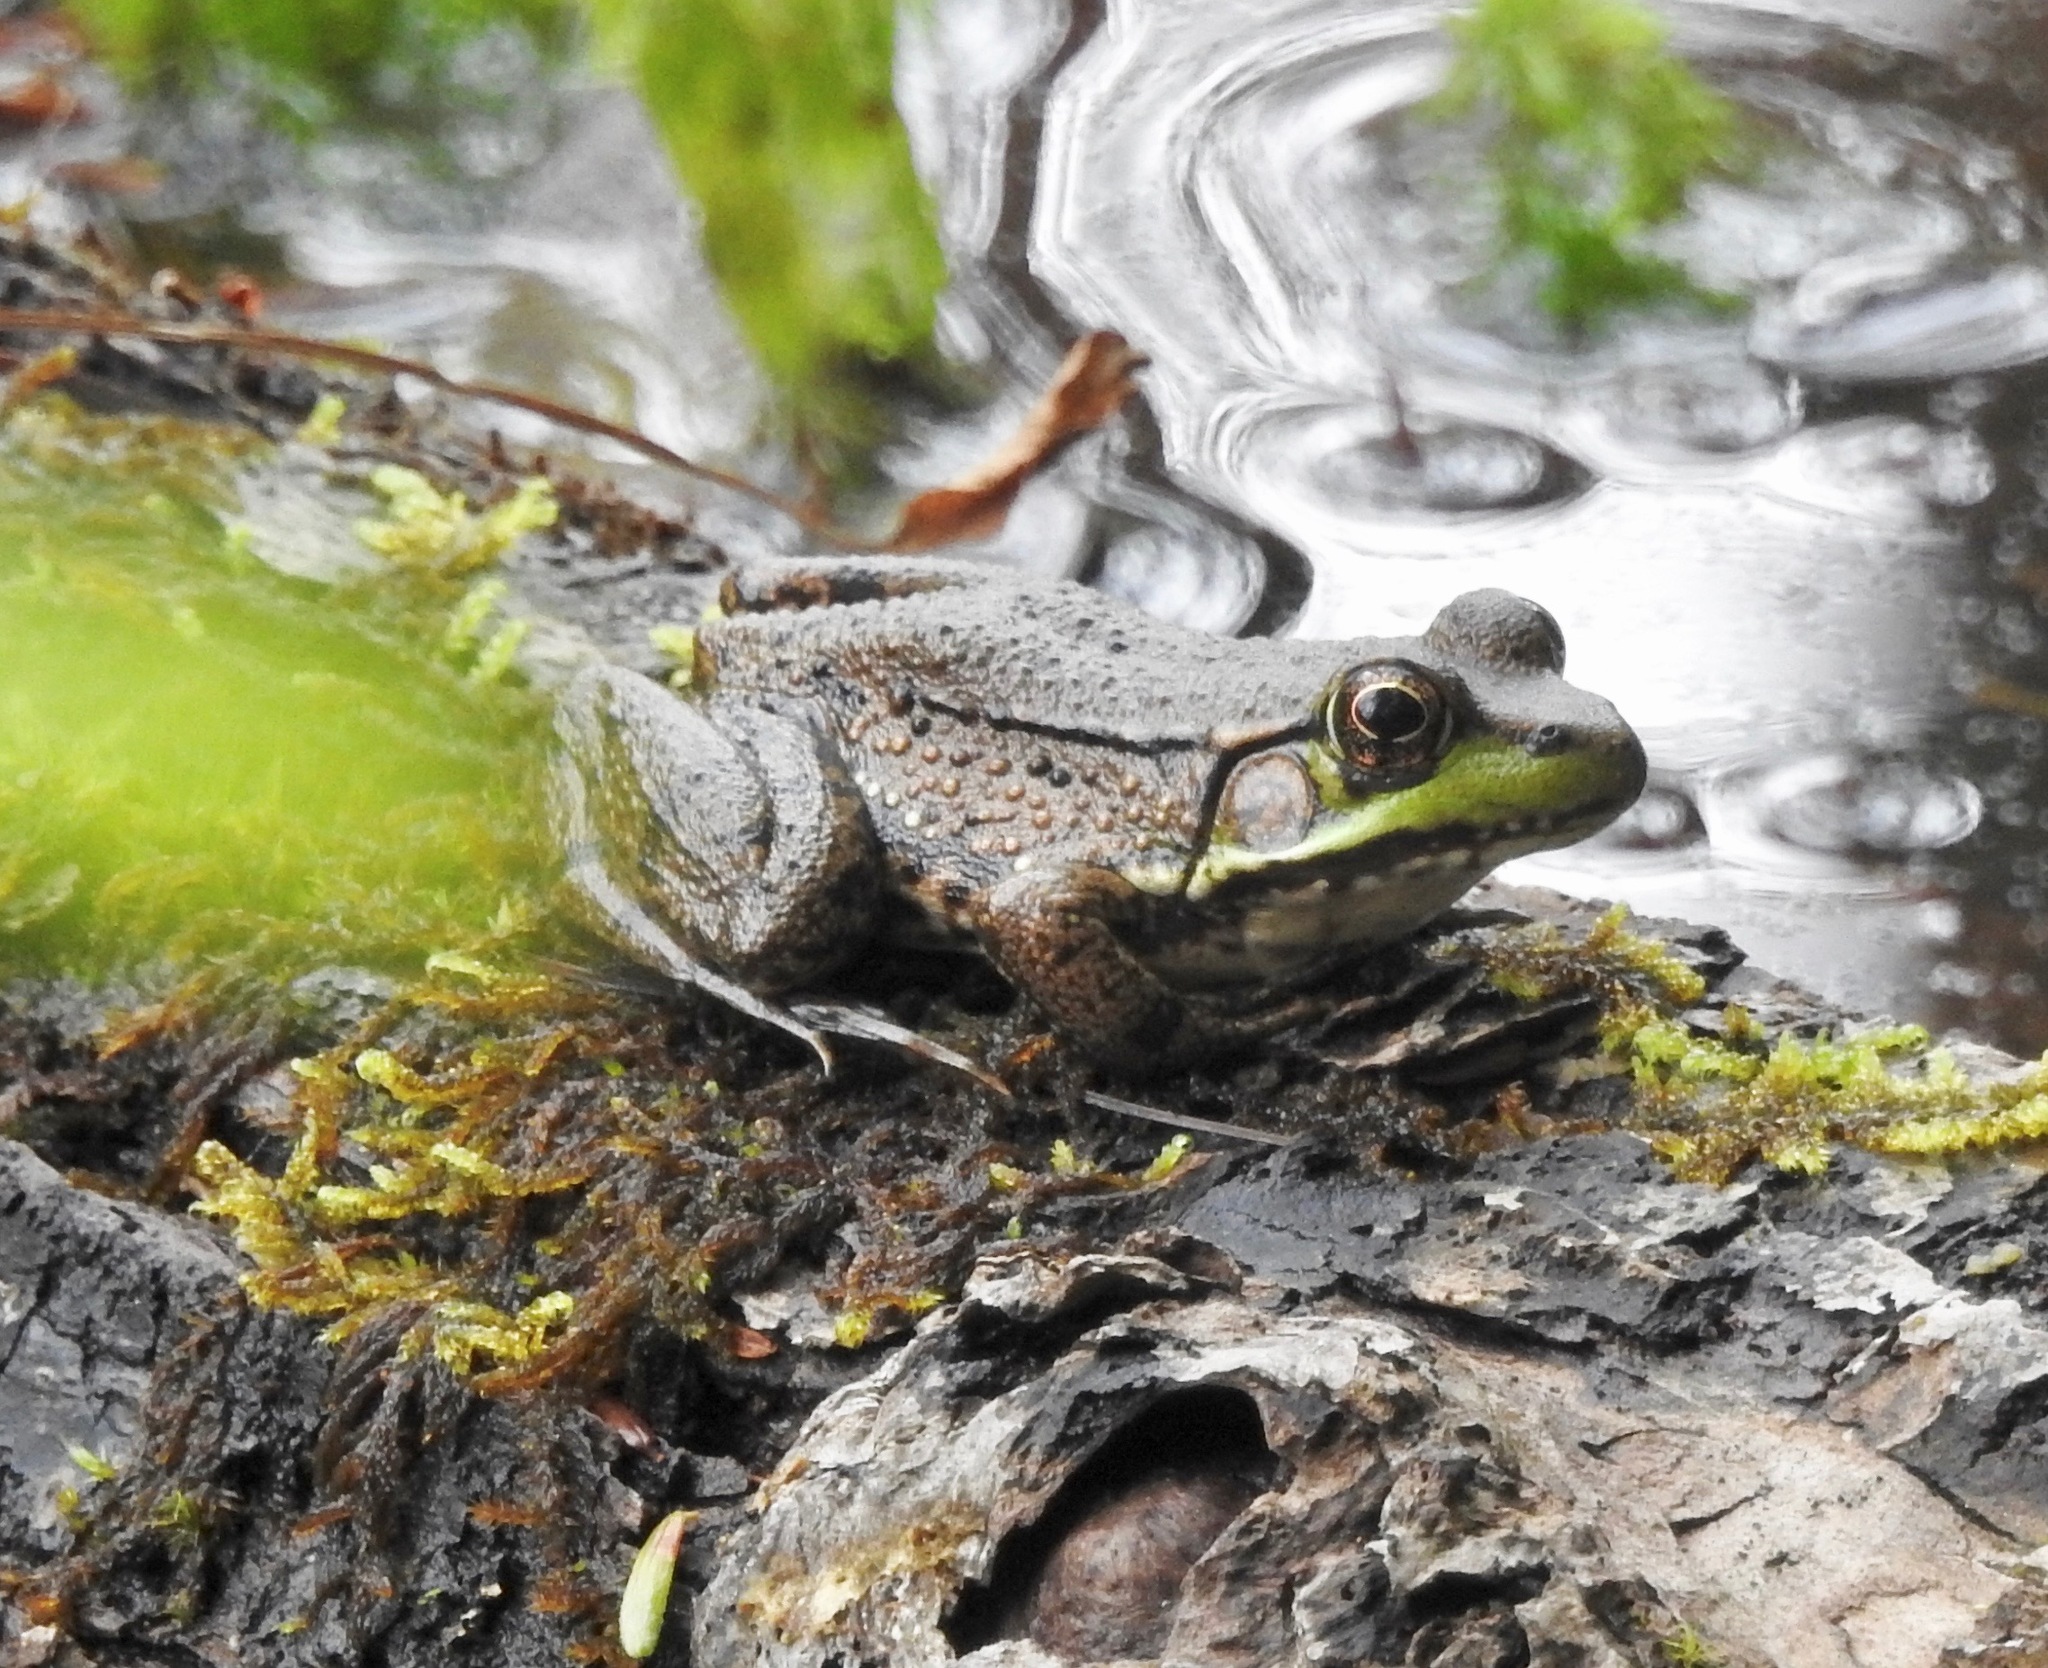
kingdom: Animalia
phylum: Chordata
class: Amphibia
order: Anura
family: Ranidae
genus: Lithobates
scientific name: Lithobates clamitans
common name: Green frog
